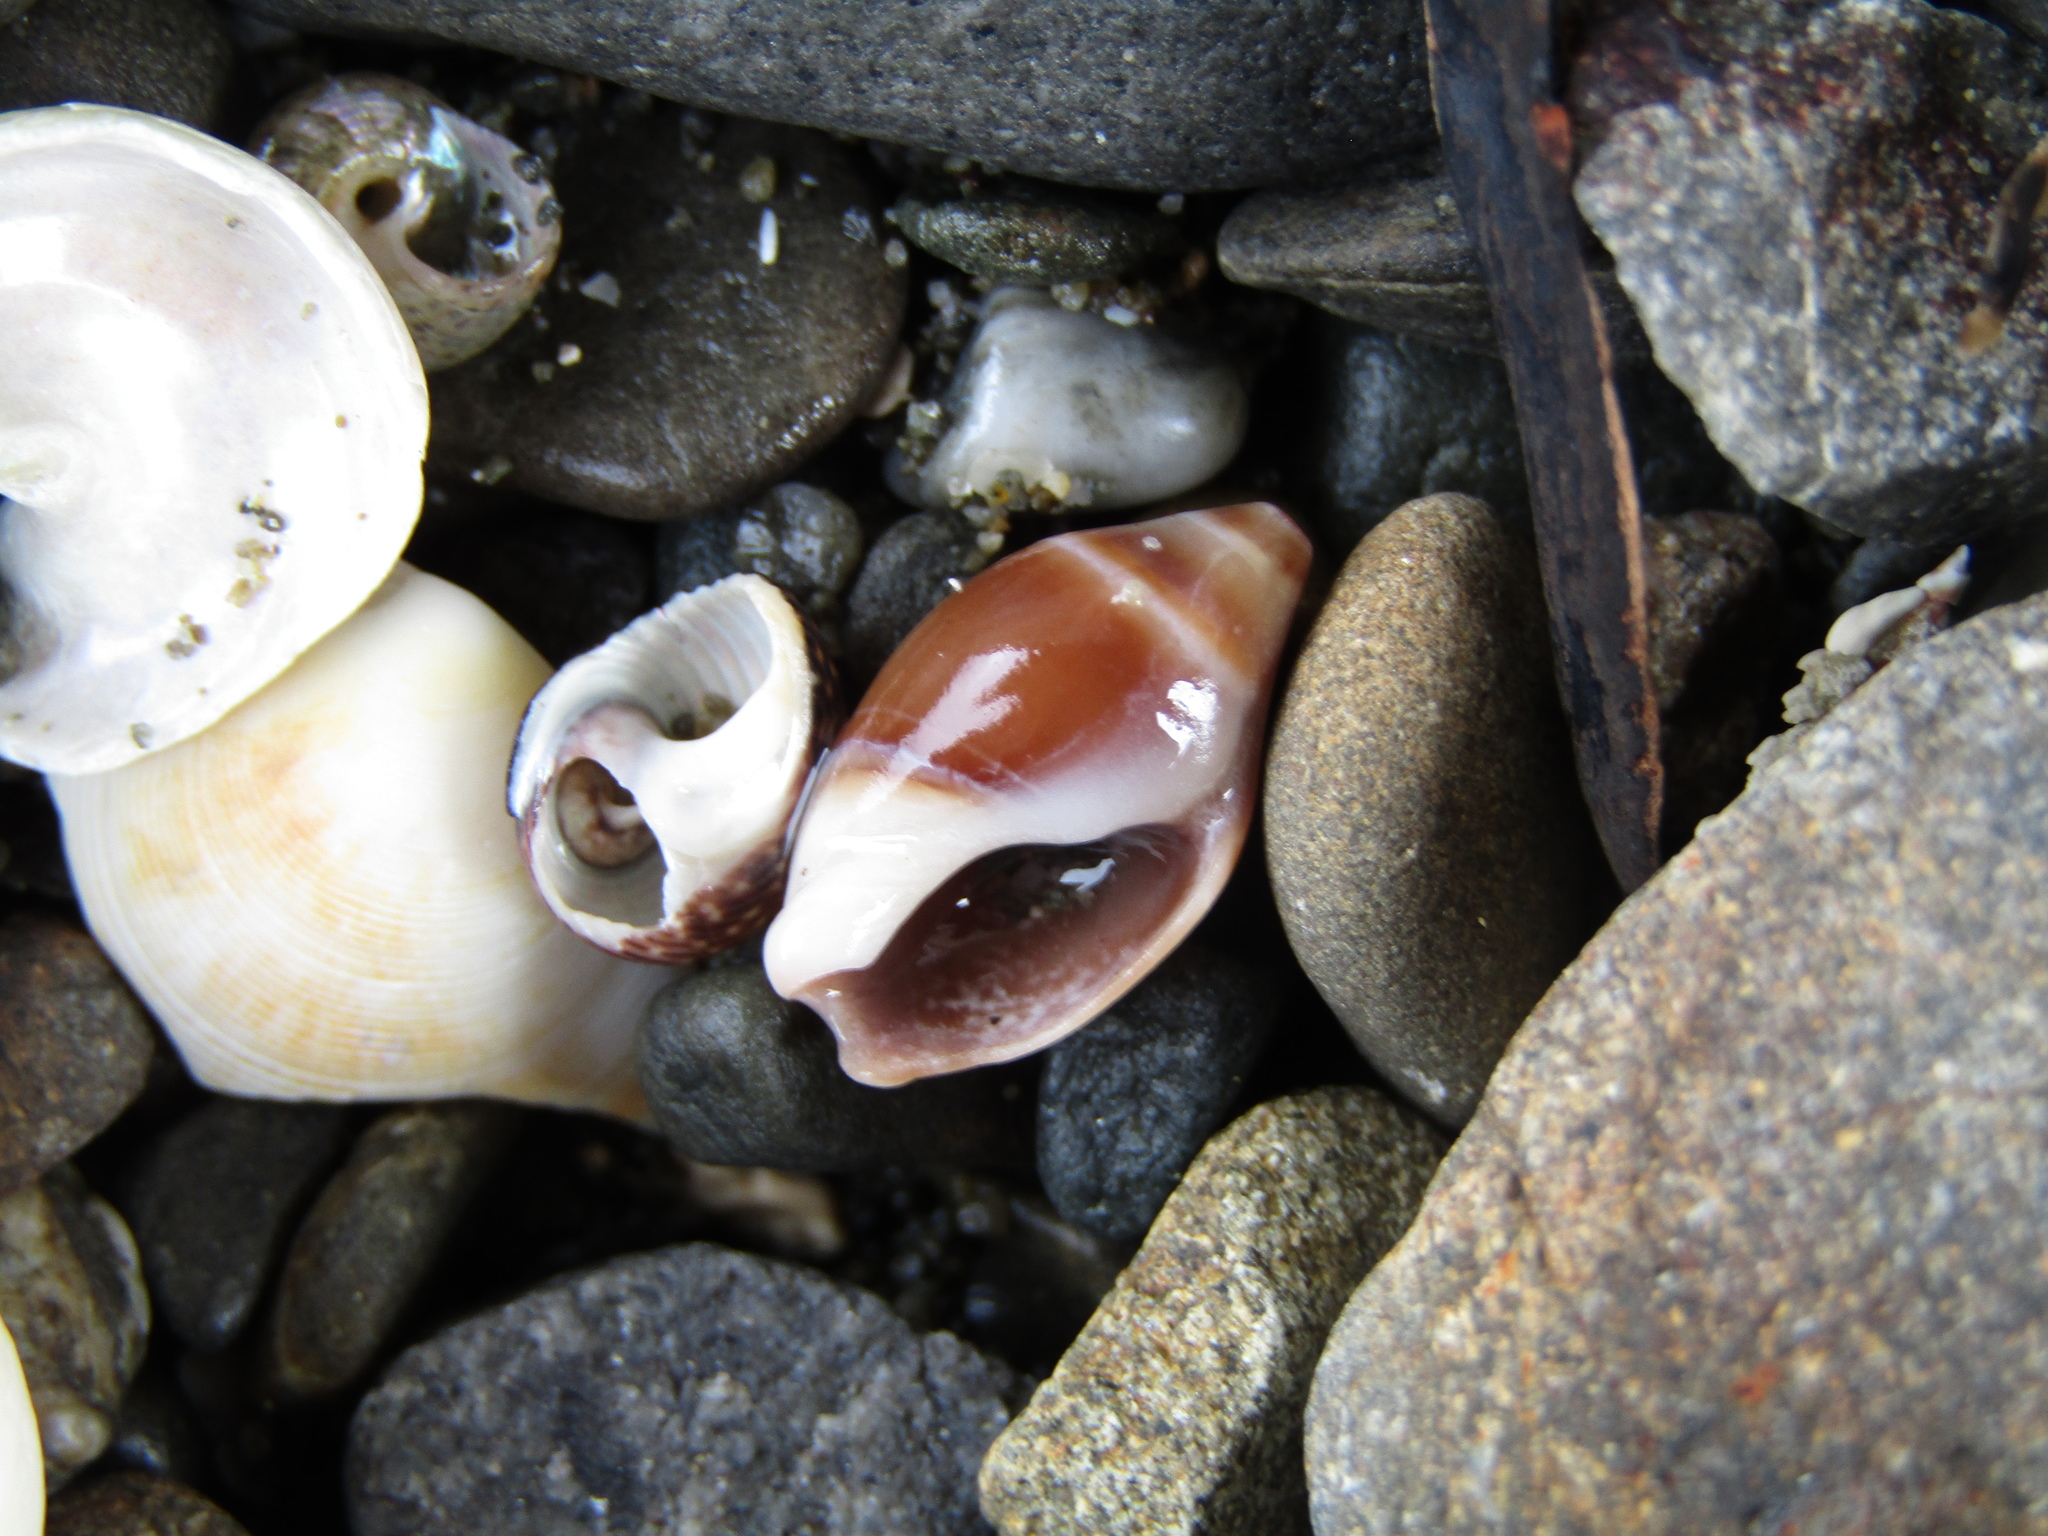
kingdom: Animalia
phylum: Mollusca
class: Gastropoda
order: Neogastropoda
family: Ancillariidae
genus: Amalda
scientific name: Amalda depressa
